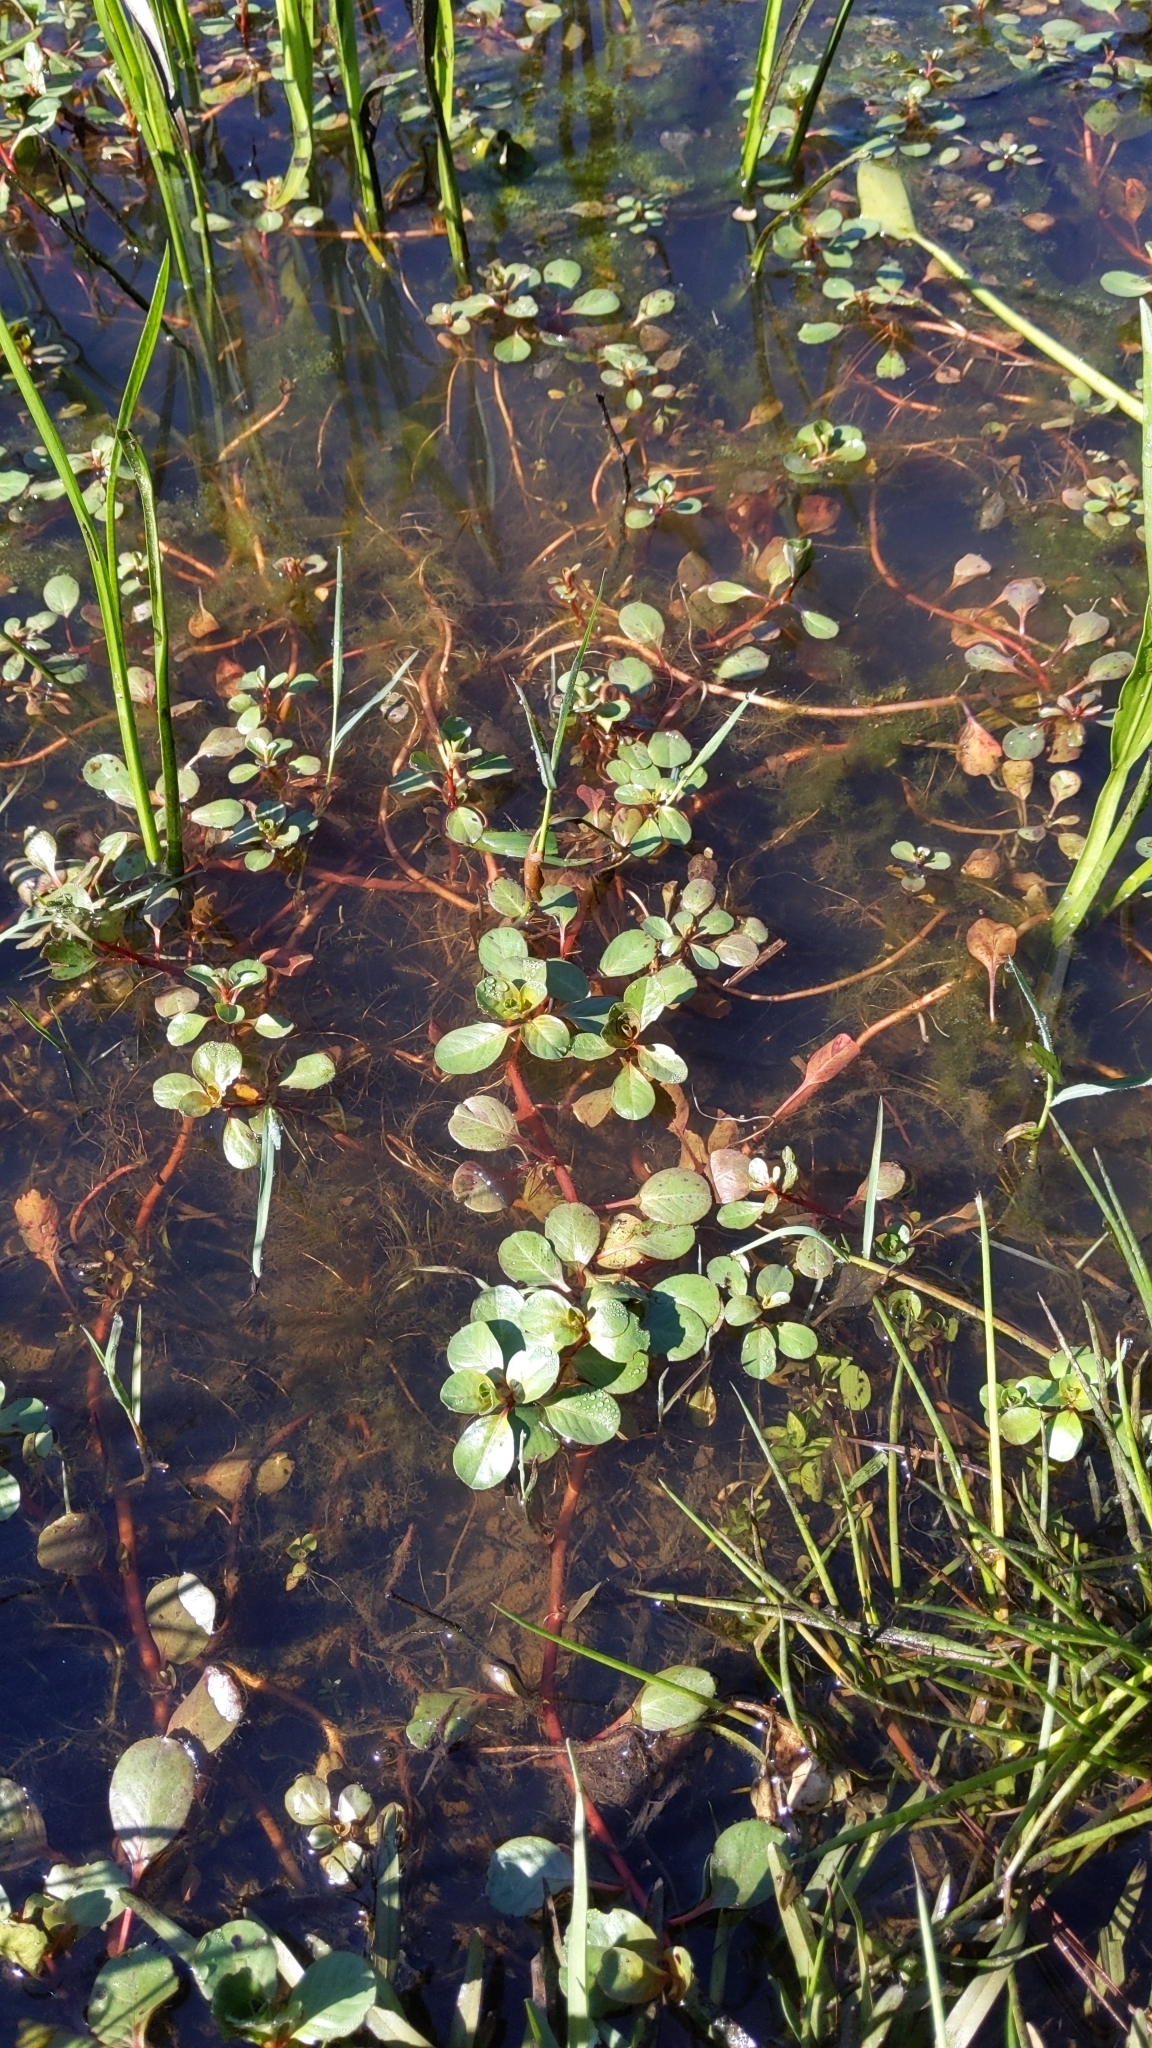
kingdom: Plantae
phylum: Tracheophyta
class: Magnoliopsida
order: Myrtales
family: Onagraceae
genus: Ludwigia
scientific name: Ludwigia peploides
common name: Floating primrose-willow
